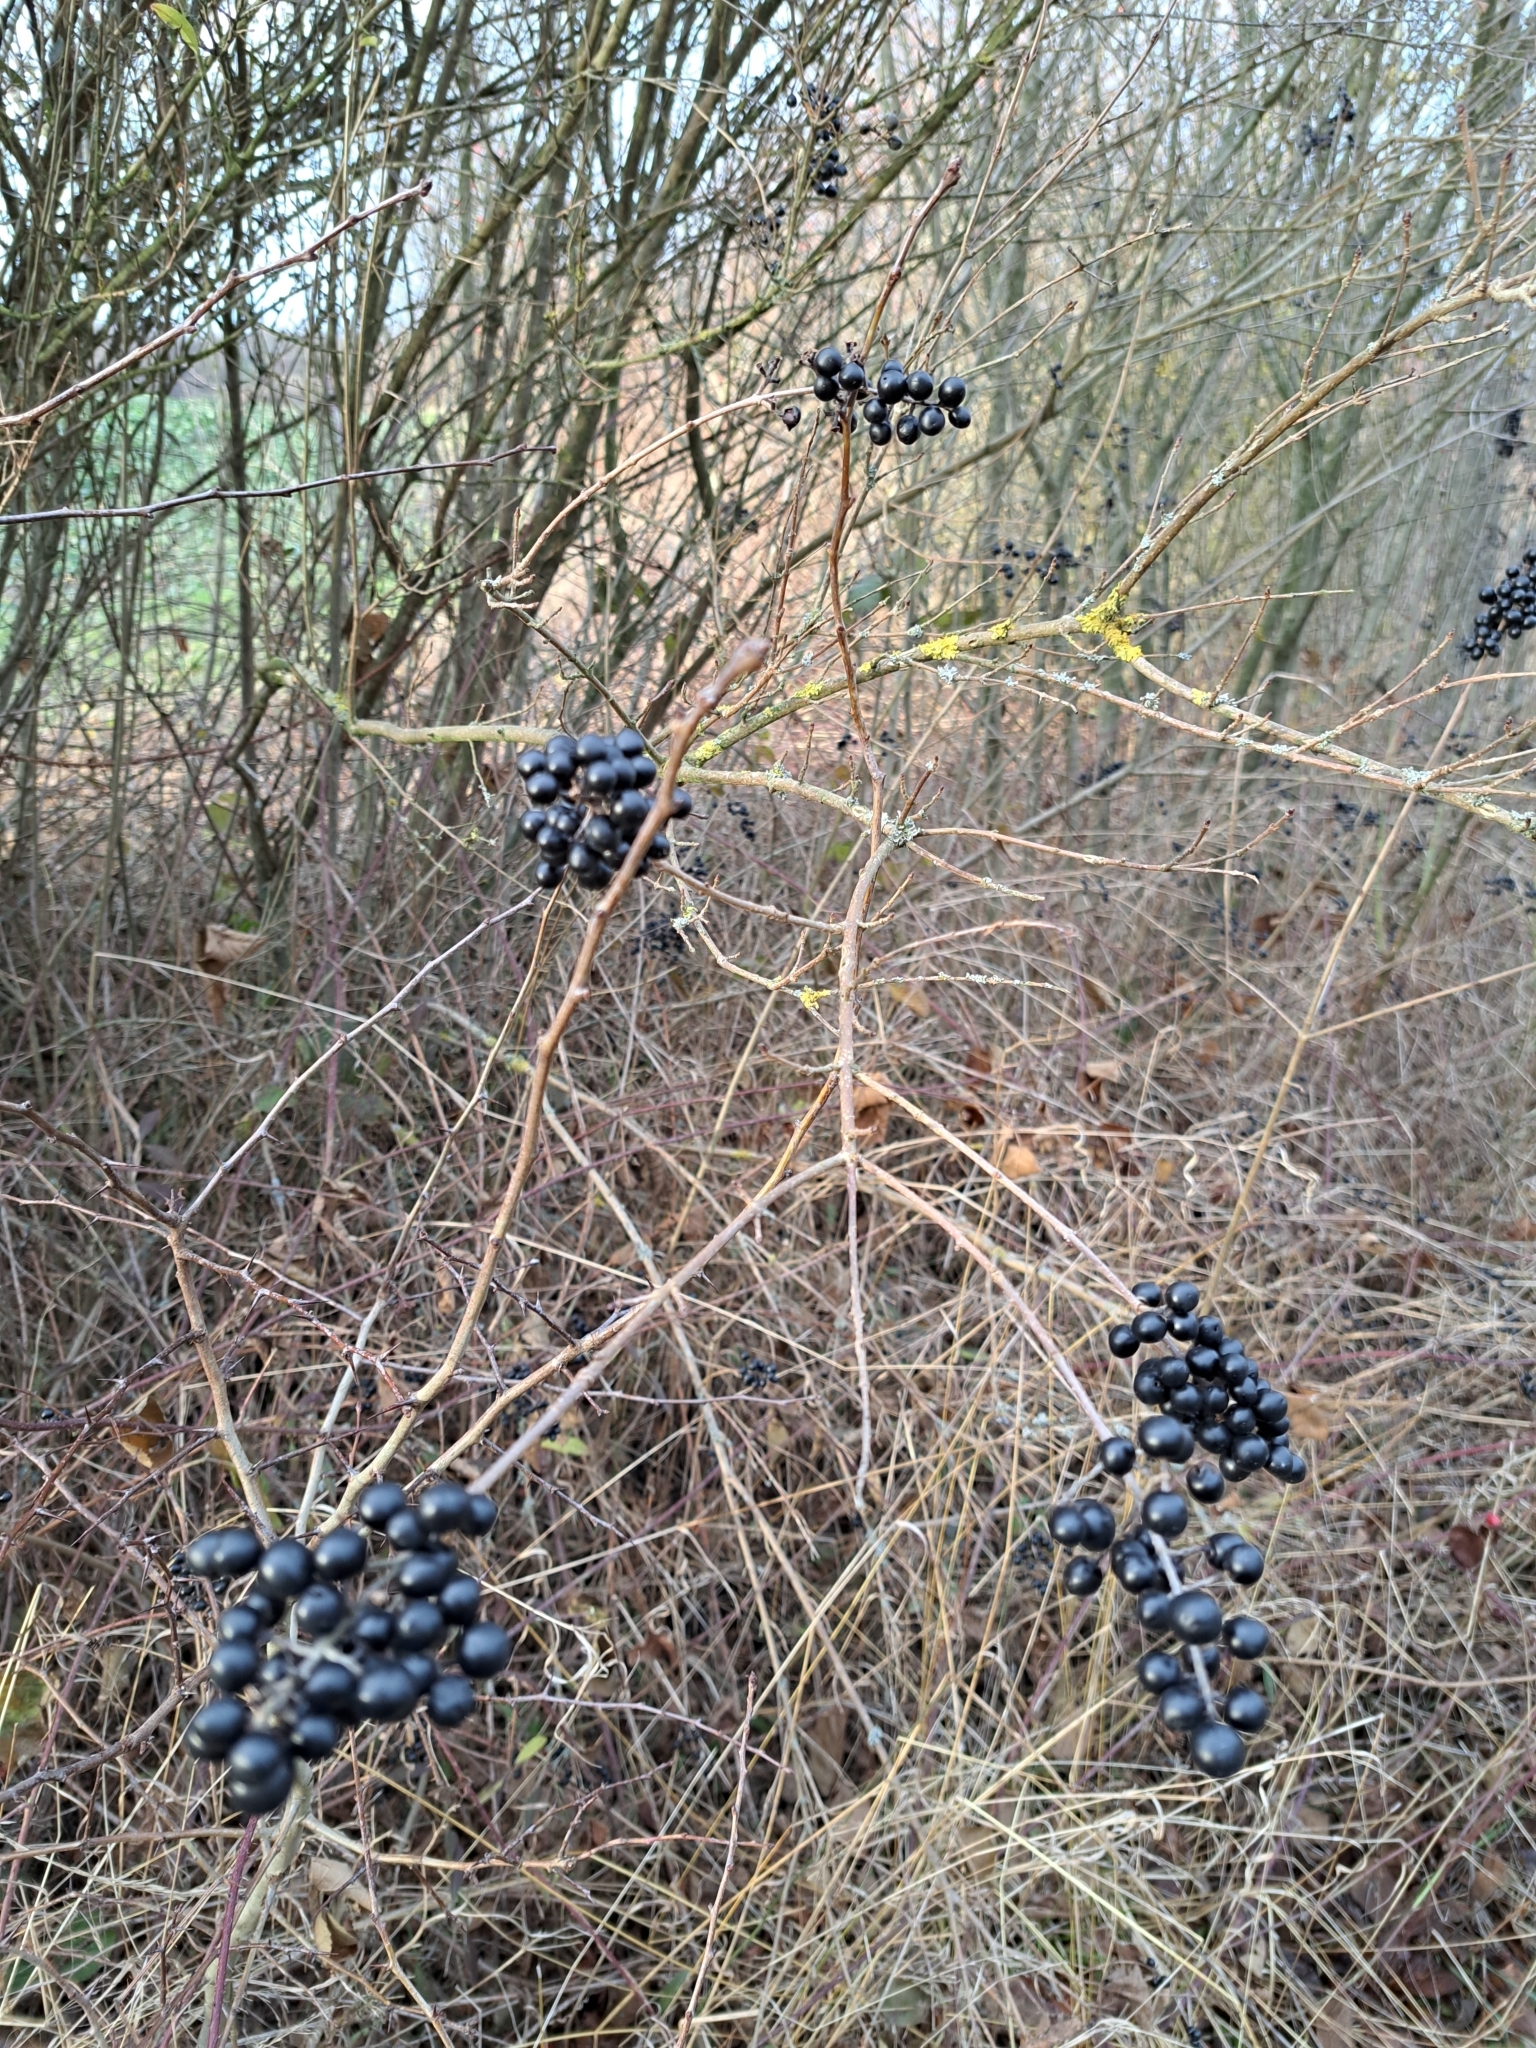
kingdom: Plantae
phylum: Tracheophyta
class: Magnoliopsida
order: Lamiales
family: Oleaceae
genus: Ligustrum
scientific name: Ligustrum vulgare
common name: Wild privet
